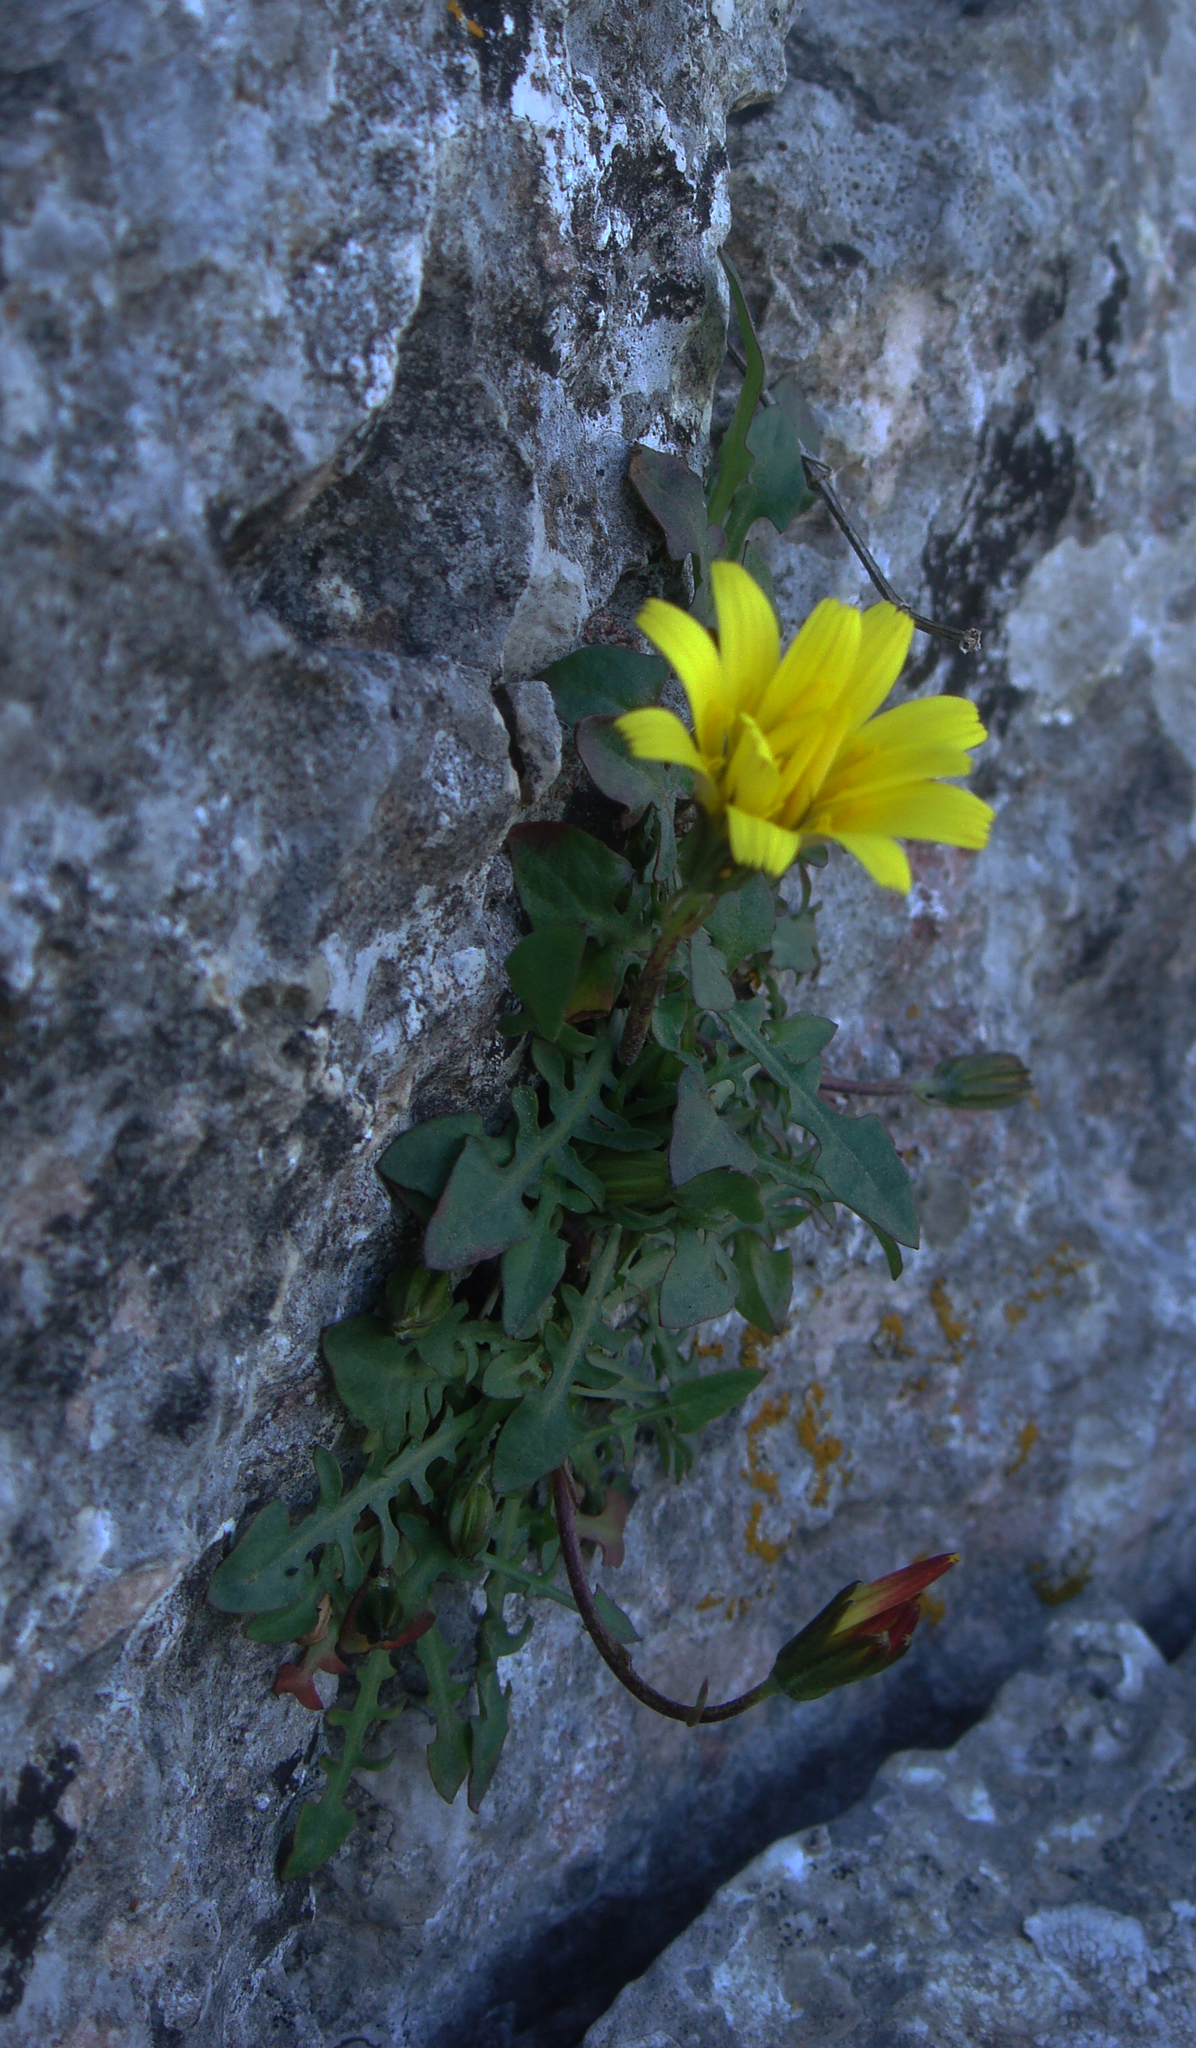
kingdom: Plantae
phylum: Tracheophyta
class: Magnoliopsida
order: Asterales
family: Asteraceae
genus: Hypochaeris
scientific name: Hypochaeris robertia
